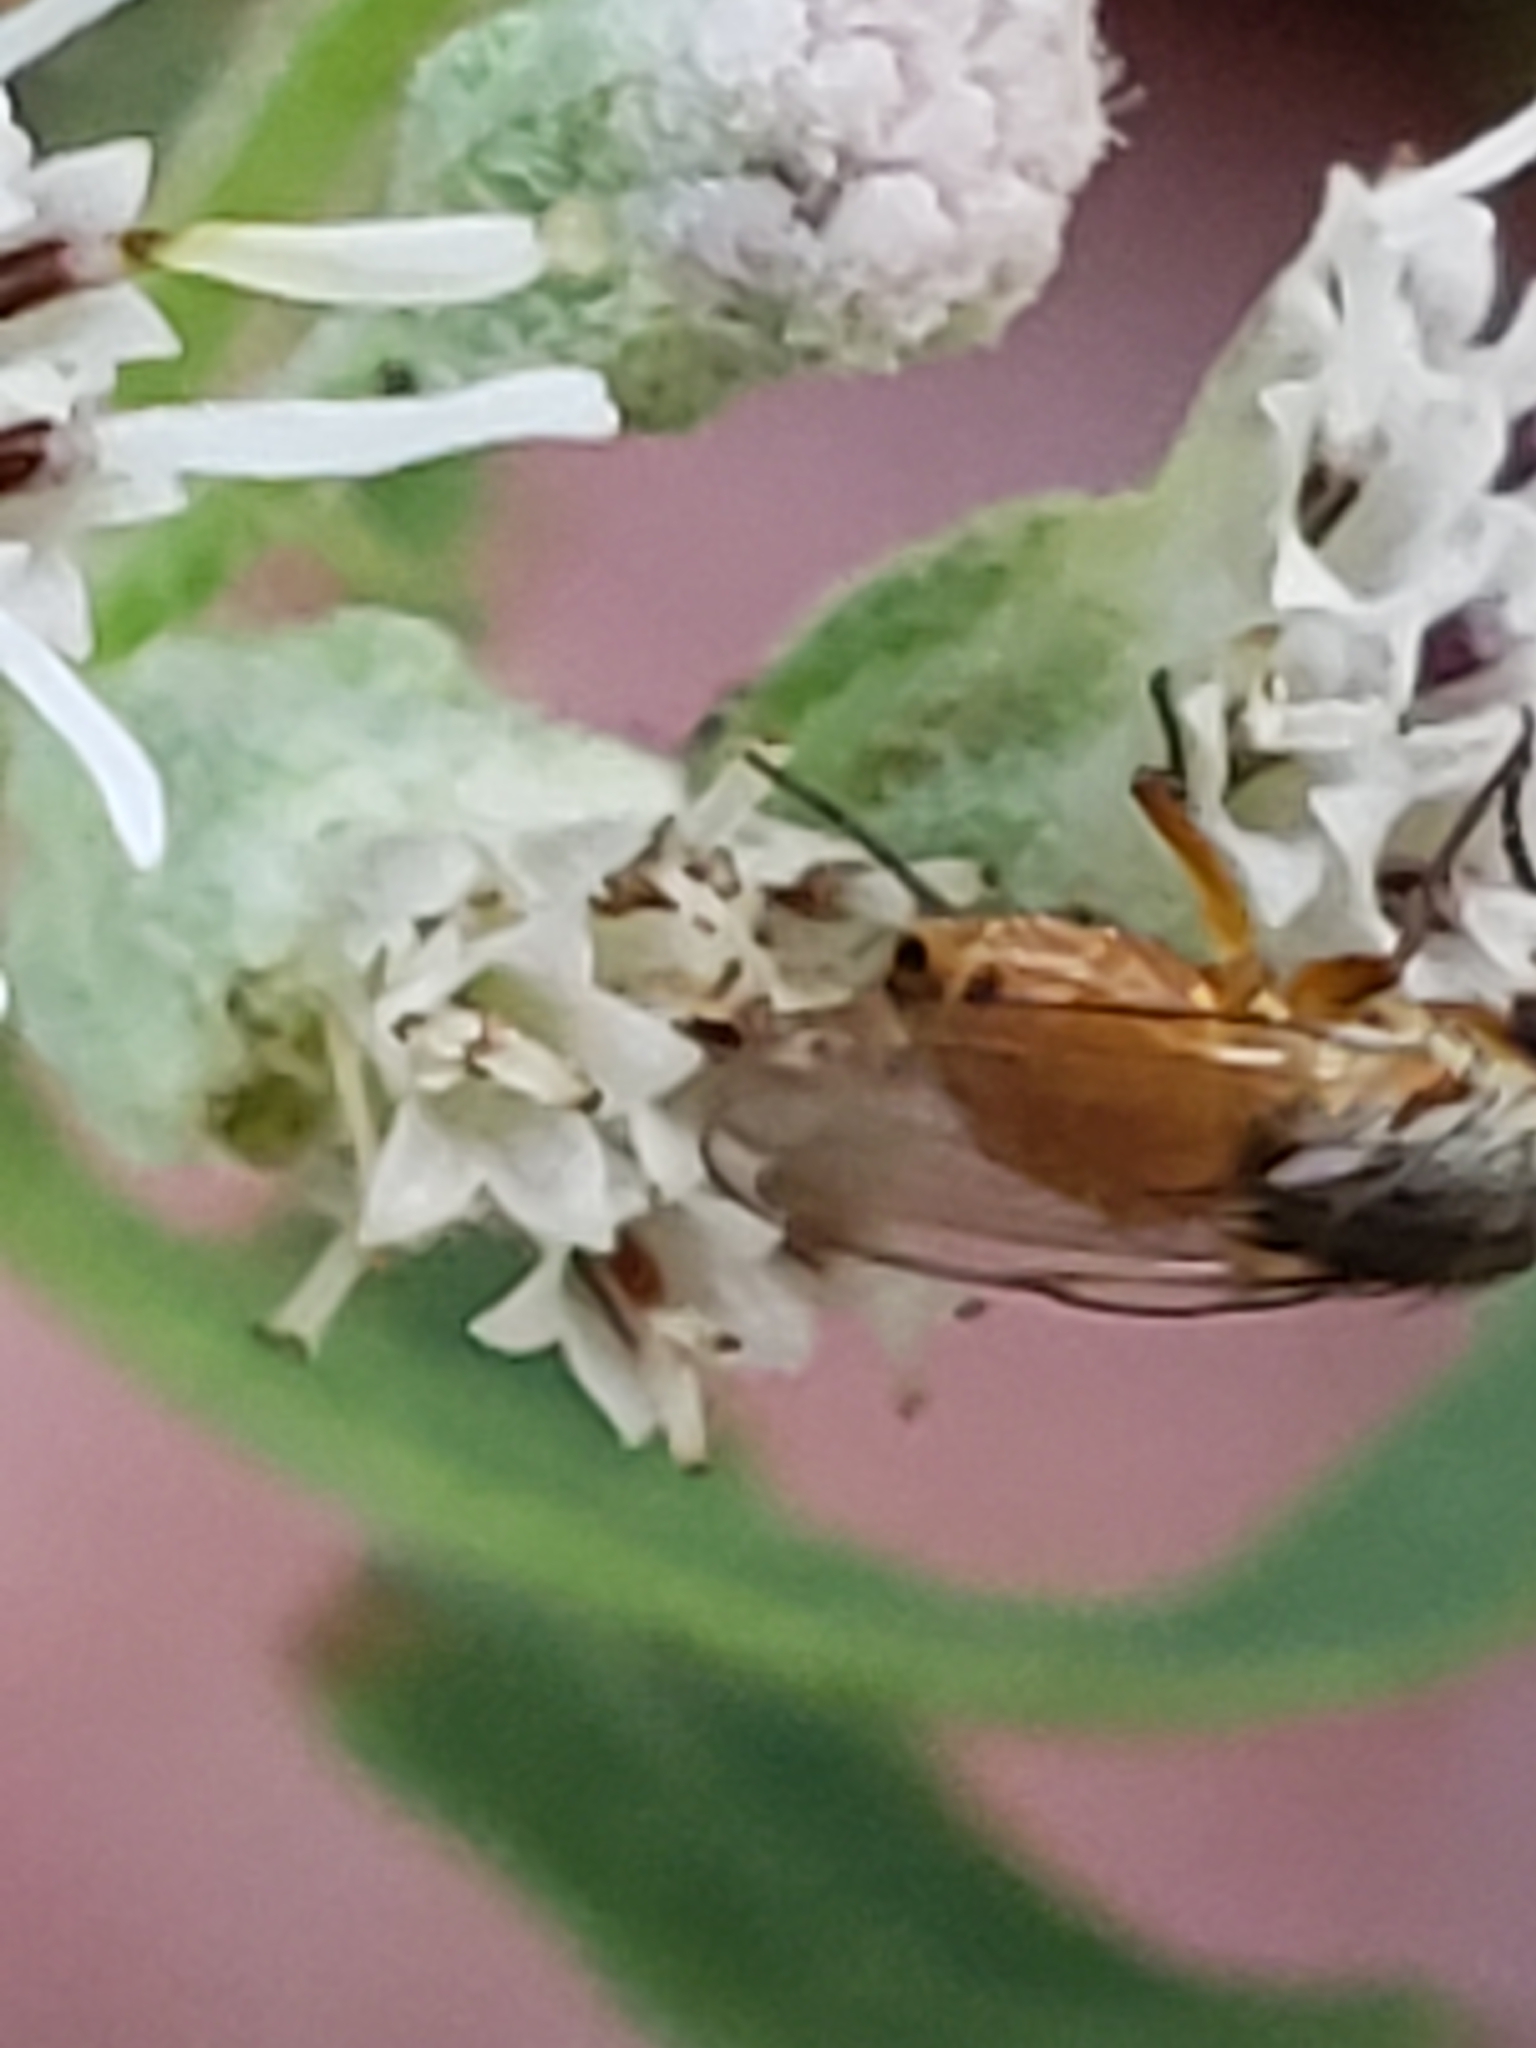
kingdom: Animalia
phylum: Arthropoda
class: Insecta
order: Diptera
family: Muscidae
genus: Atherigona
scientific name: Atherigona reversura
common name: Bermudagrass stem maggot
